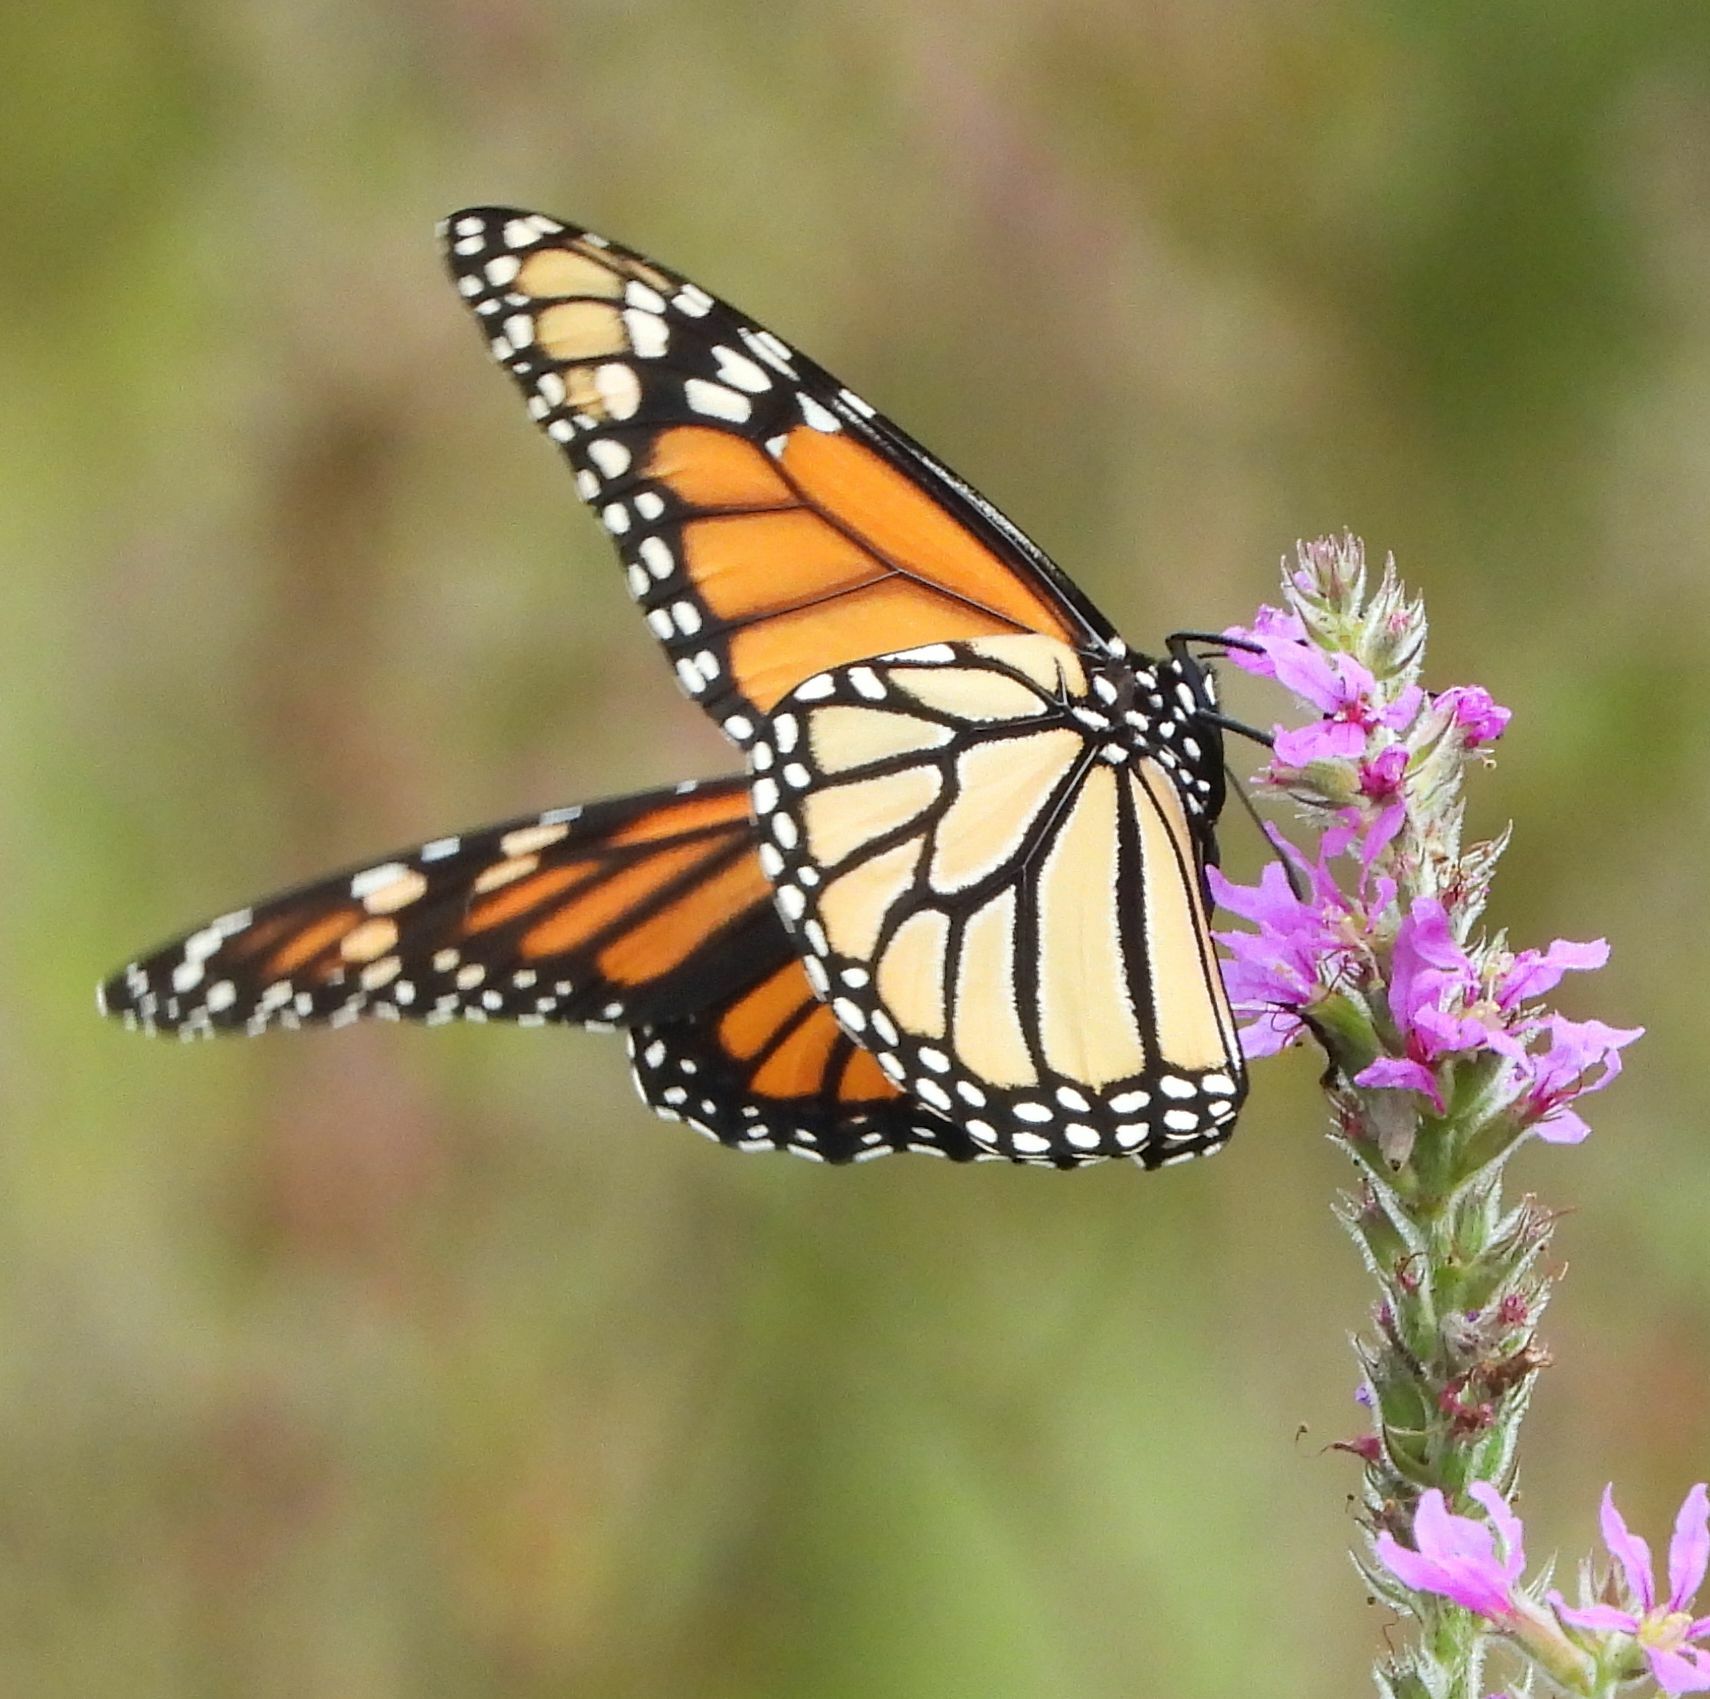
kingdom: Animalia
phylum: Arthropoda
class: Insecta
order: Lepidoptera
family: Nymphalidae
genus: Danaus
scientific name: Danaus plexippus
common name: Monarch
